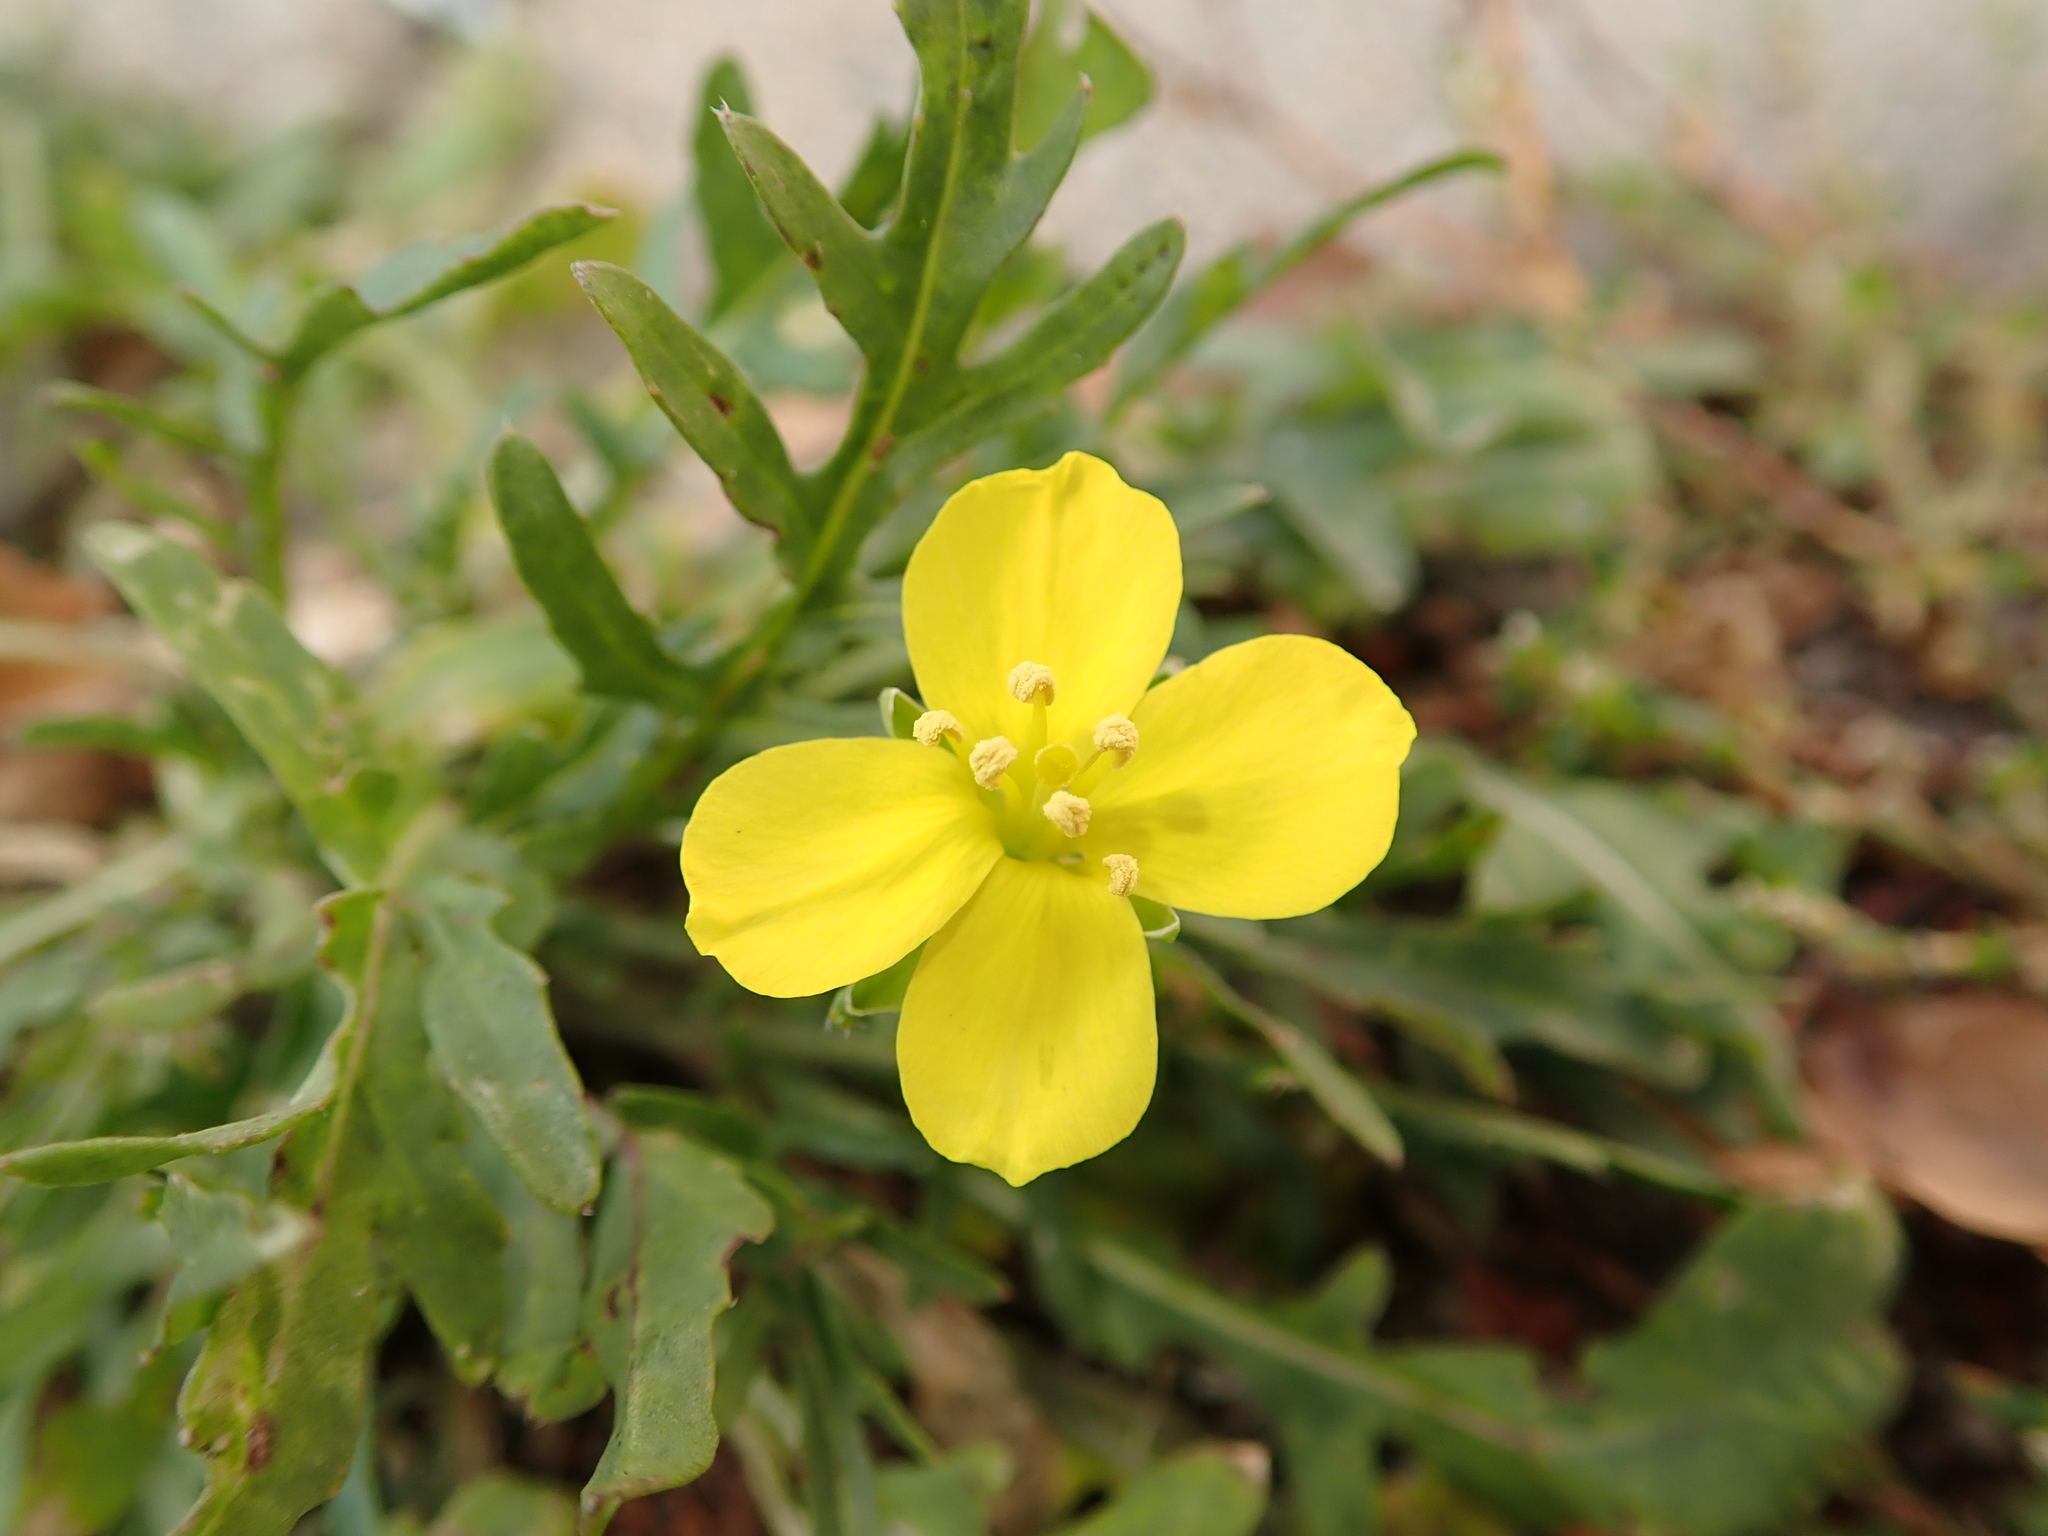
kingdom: Plantae
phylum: Tracheophyta
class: Magnoliopsida
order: Brassicales
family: Brassicaceae
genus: Diplotaxis
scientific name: Diplotaxis muralis
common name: Annual wall-rocket
